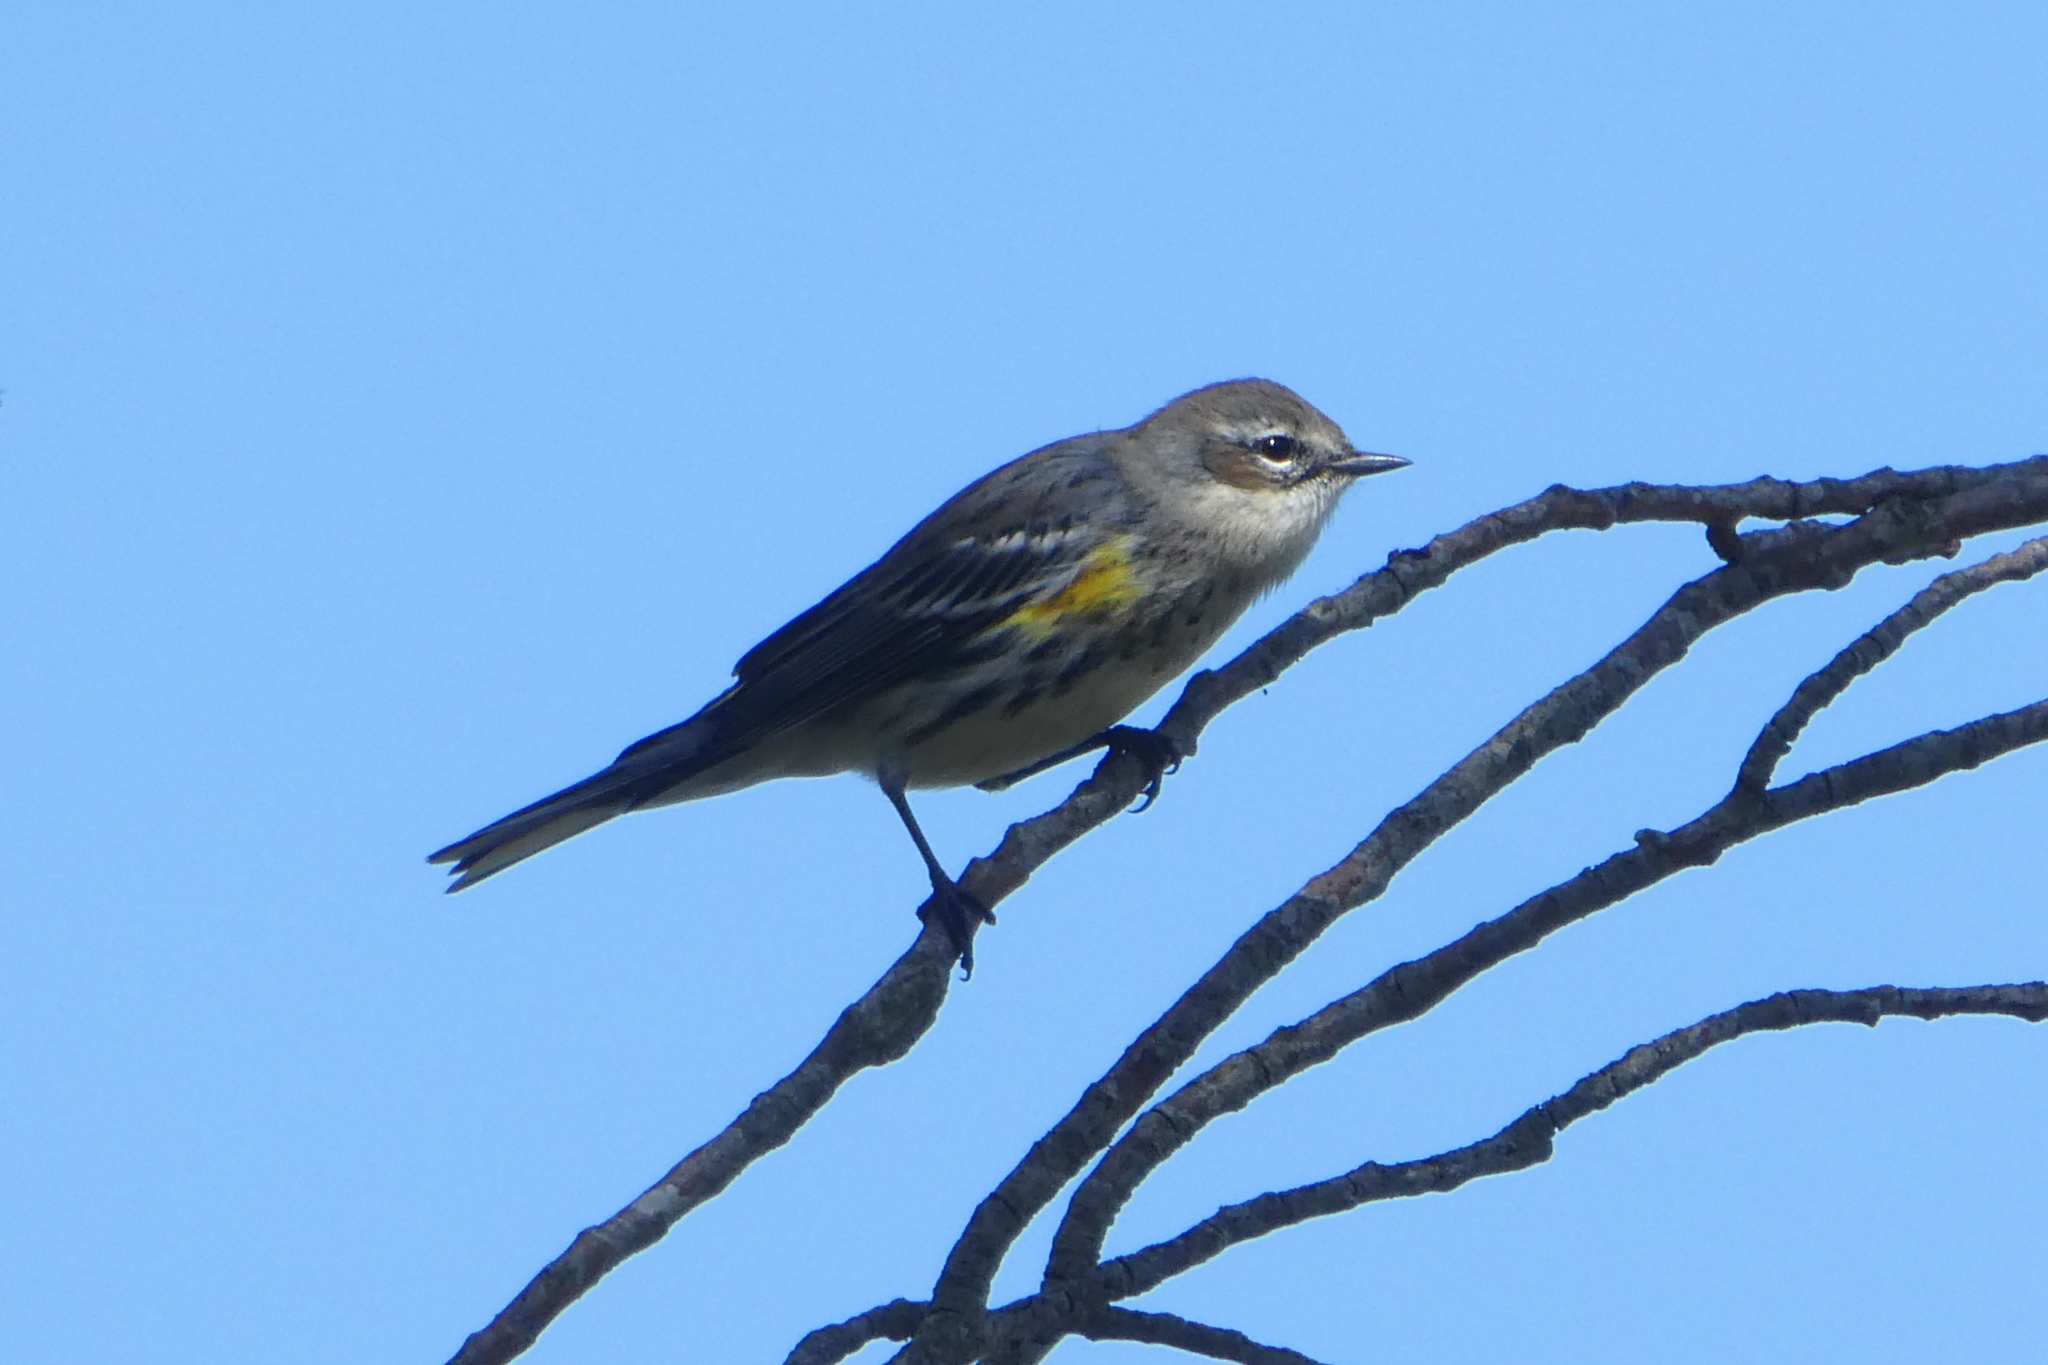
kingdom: Animalia
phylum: Chordata
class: Aves
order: Passeriformes
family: Parulidae
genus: Setophaga
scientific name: Setophaga coronata
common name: Myrtle warbler
